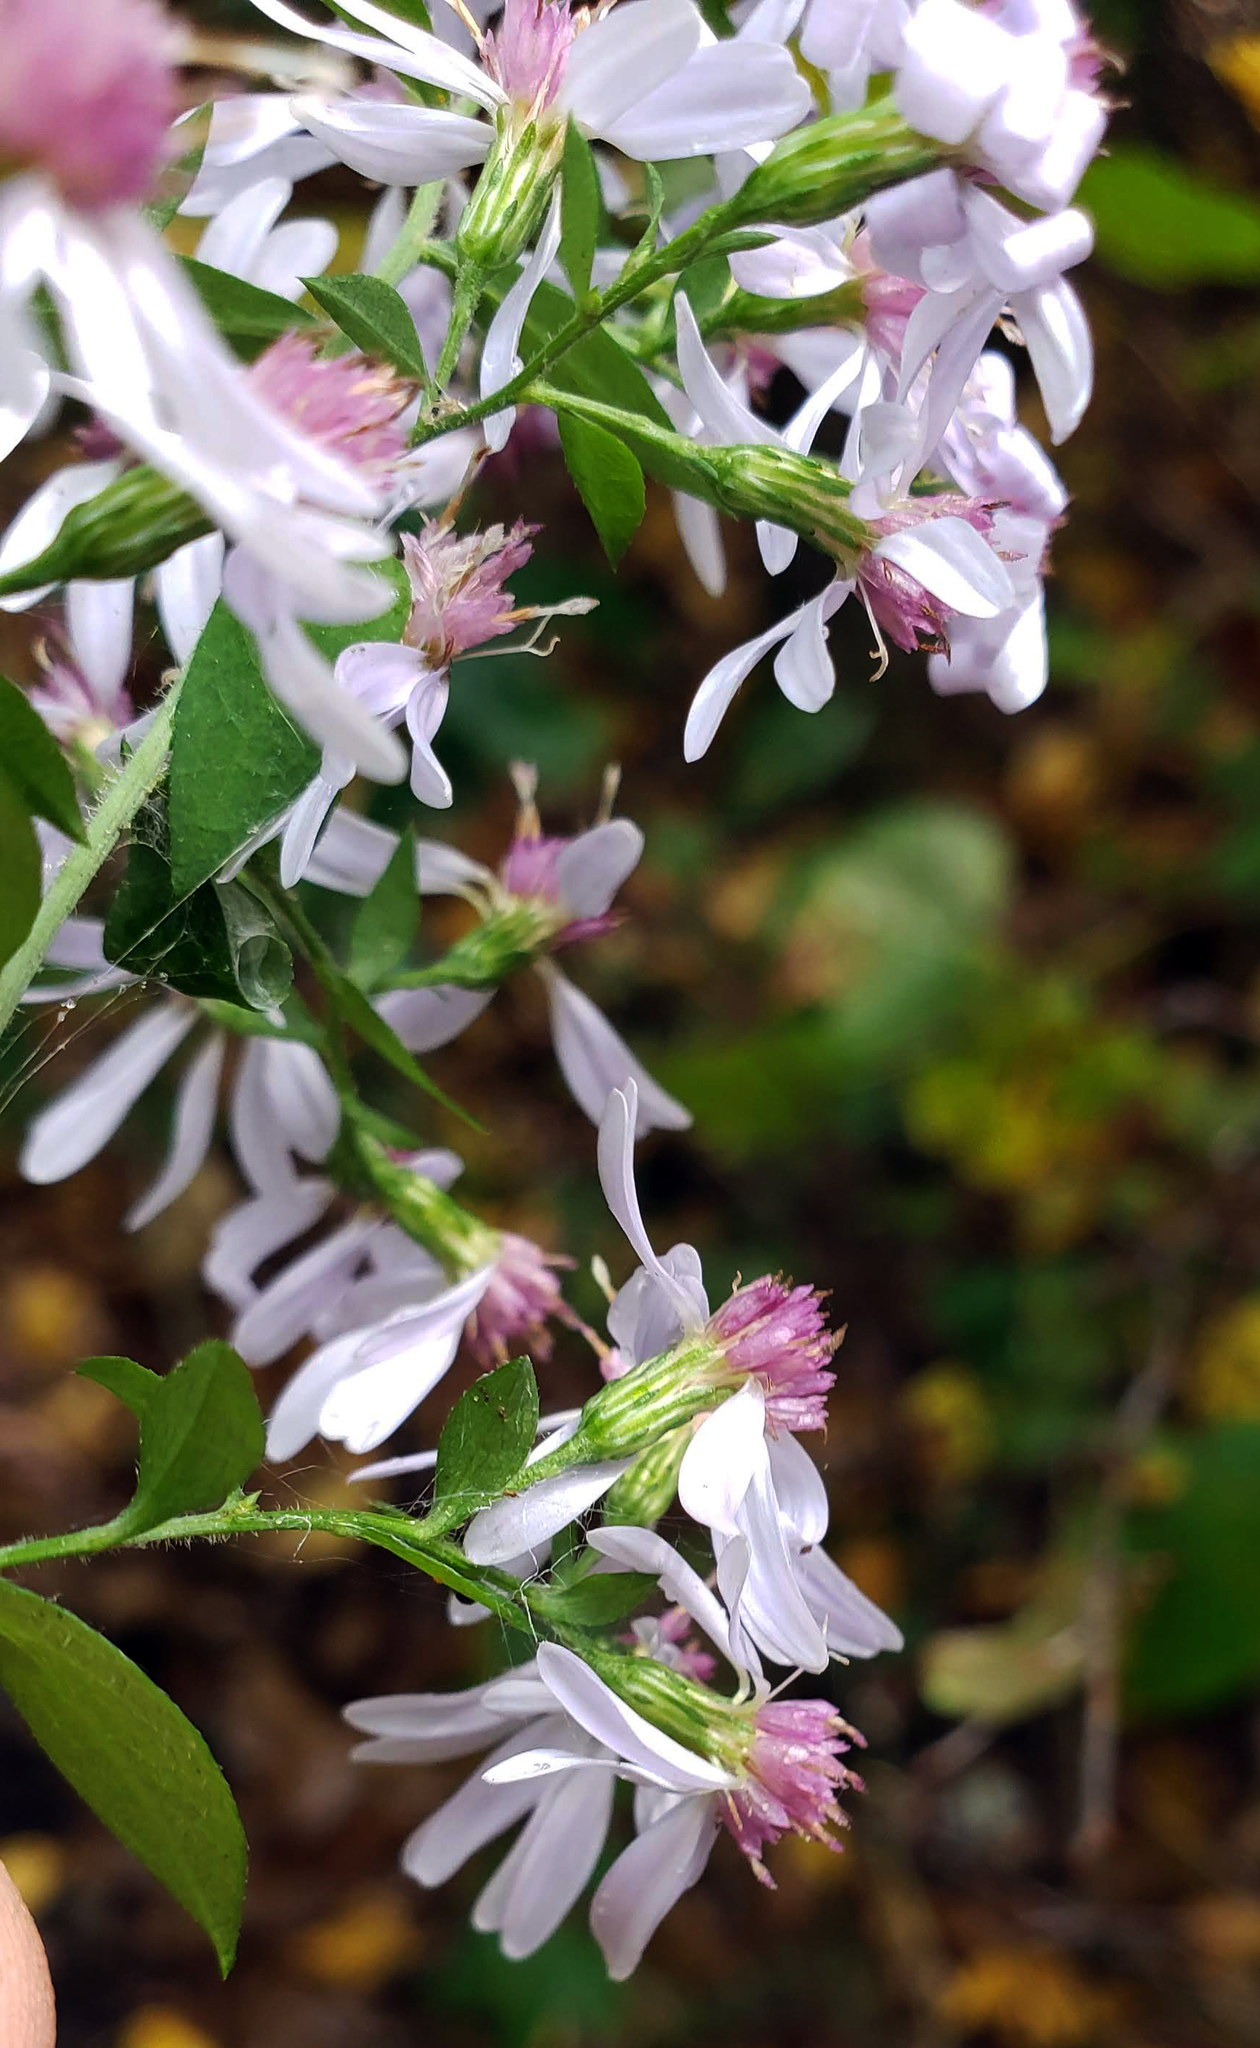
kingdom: Plantae
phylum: Tracheophyta
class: Magnoliopsida
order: Asterales
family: Asteraceae
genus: Symphyotrichum
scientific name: Symphyotrichum cordifolium
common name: Beeweed
